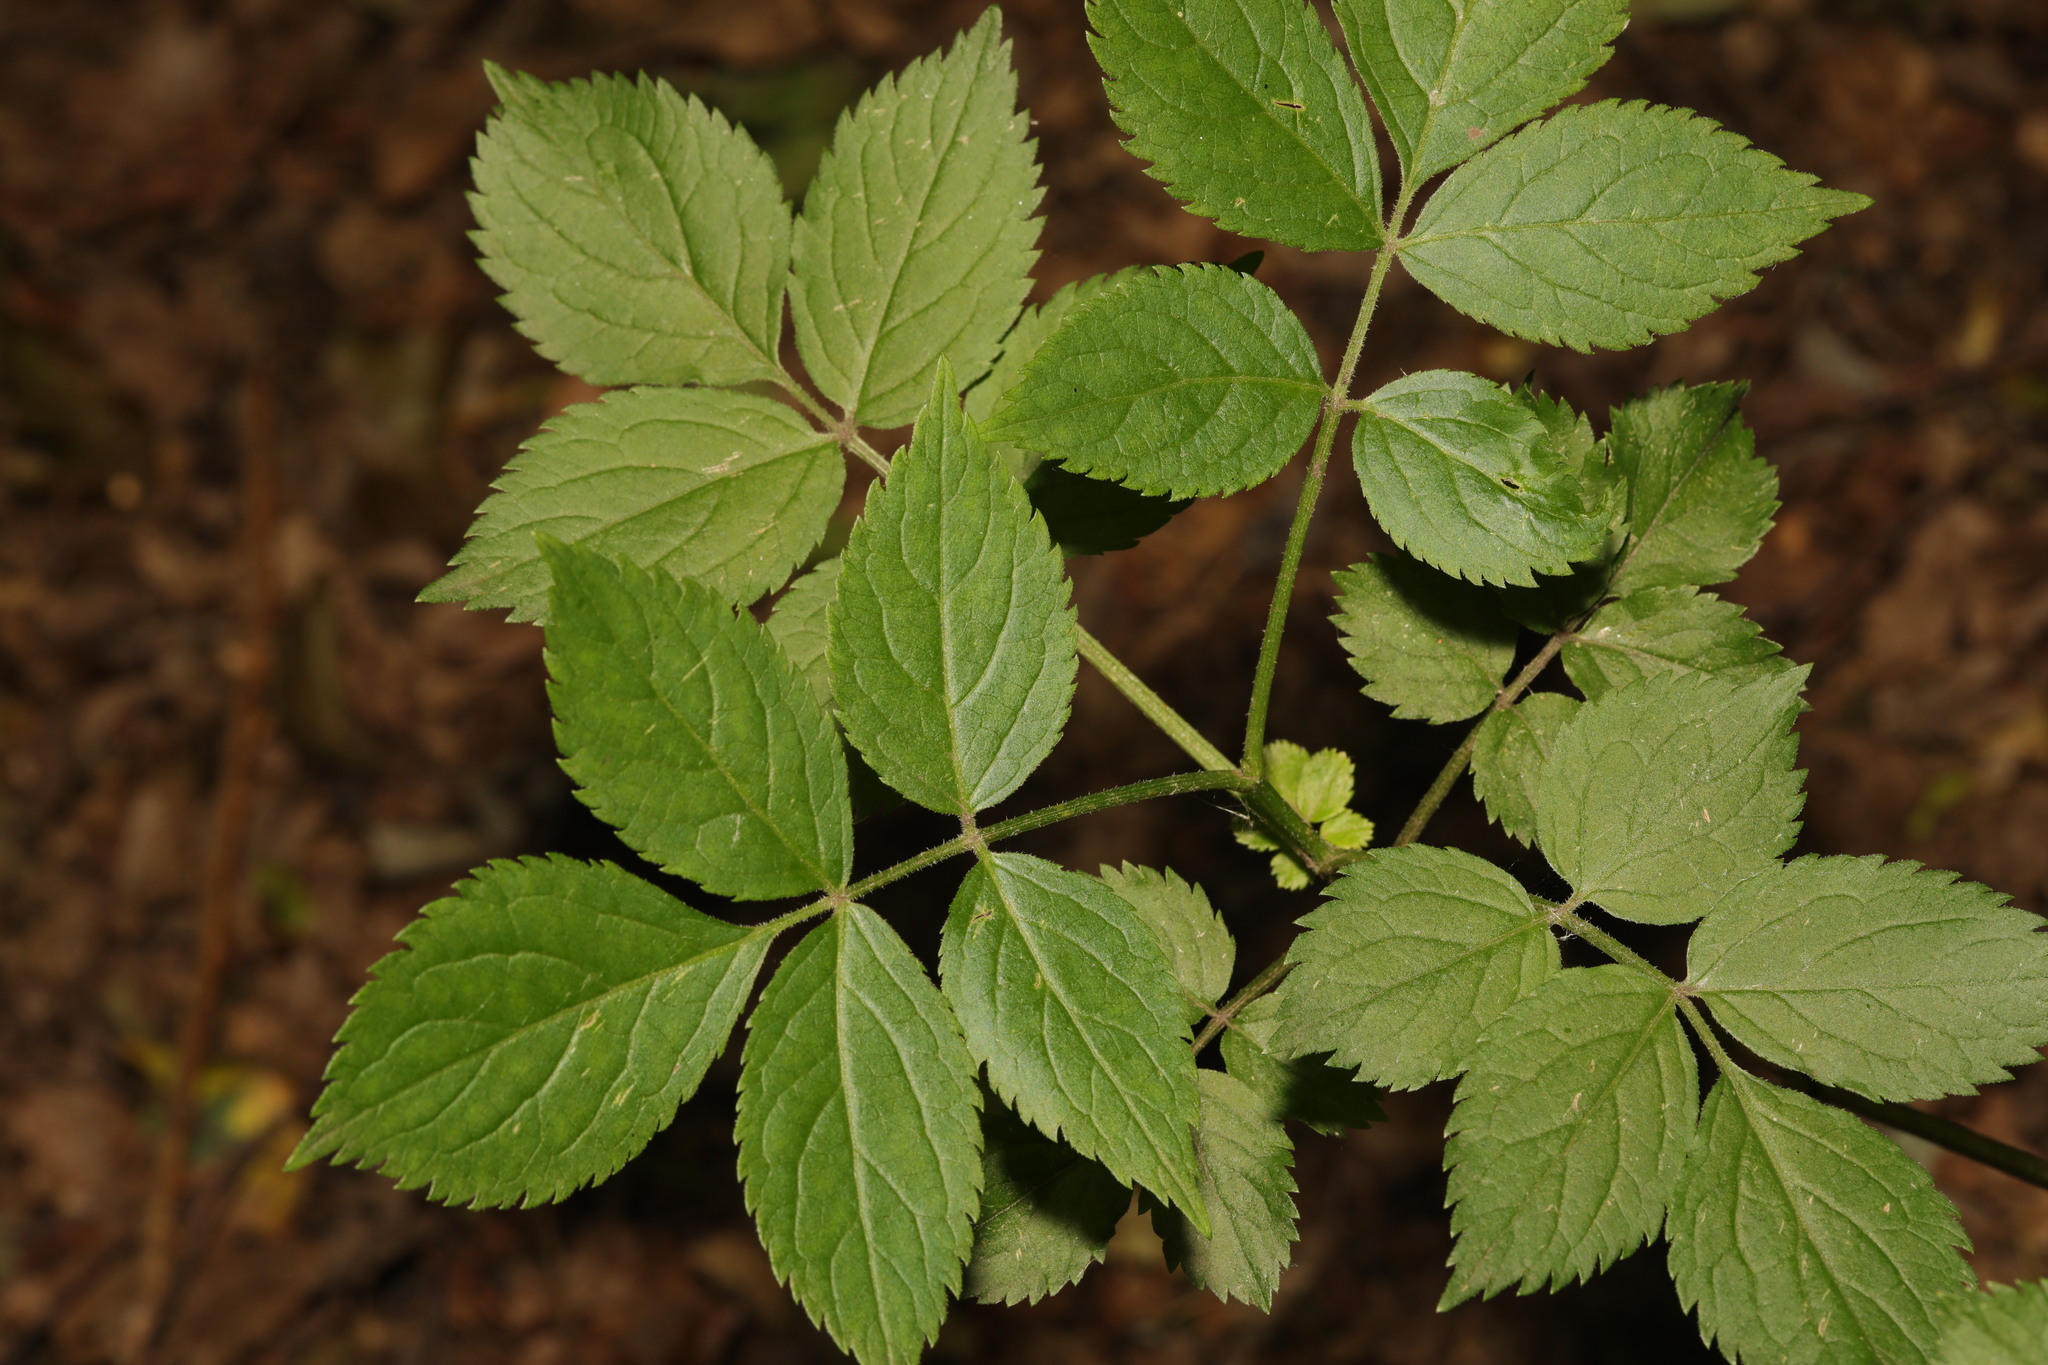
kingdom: Plantae
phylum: Tracheophyta
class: Magnoliopsida
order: Dipsacales
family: Viburnaceae
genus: Sambucus
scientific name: Sambucus nigra
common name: Elder
